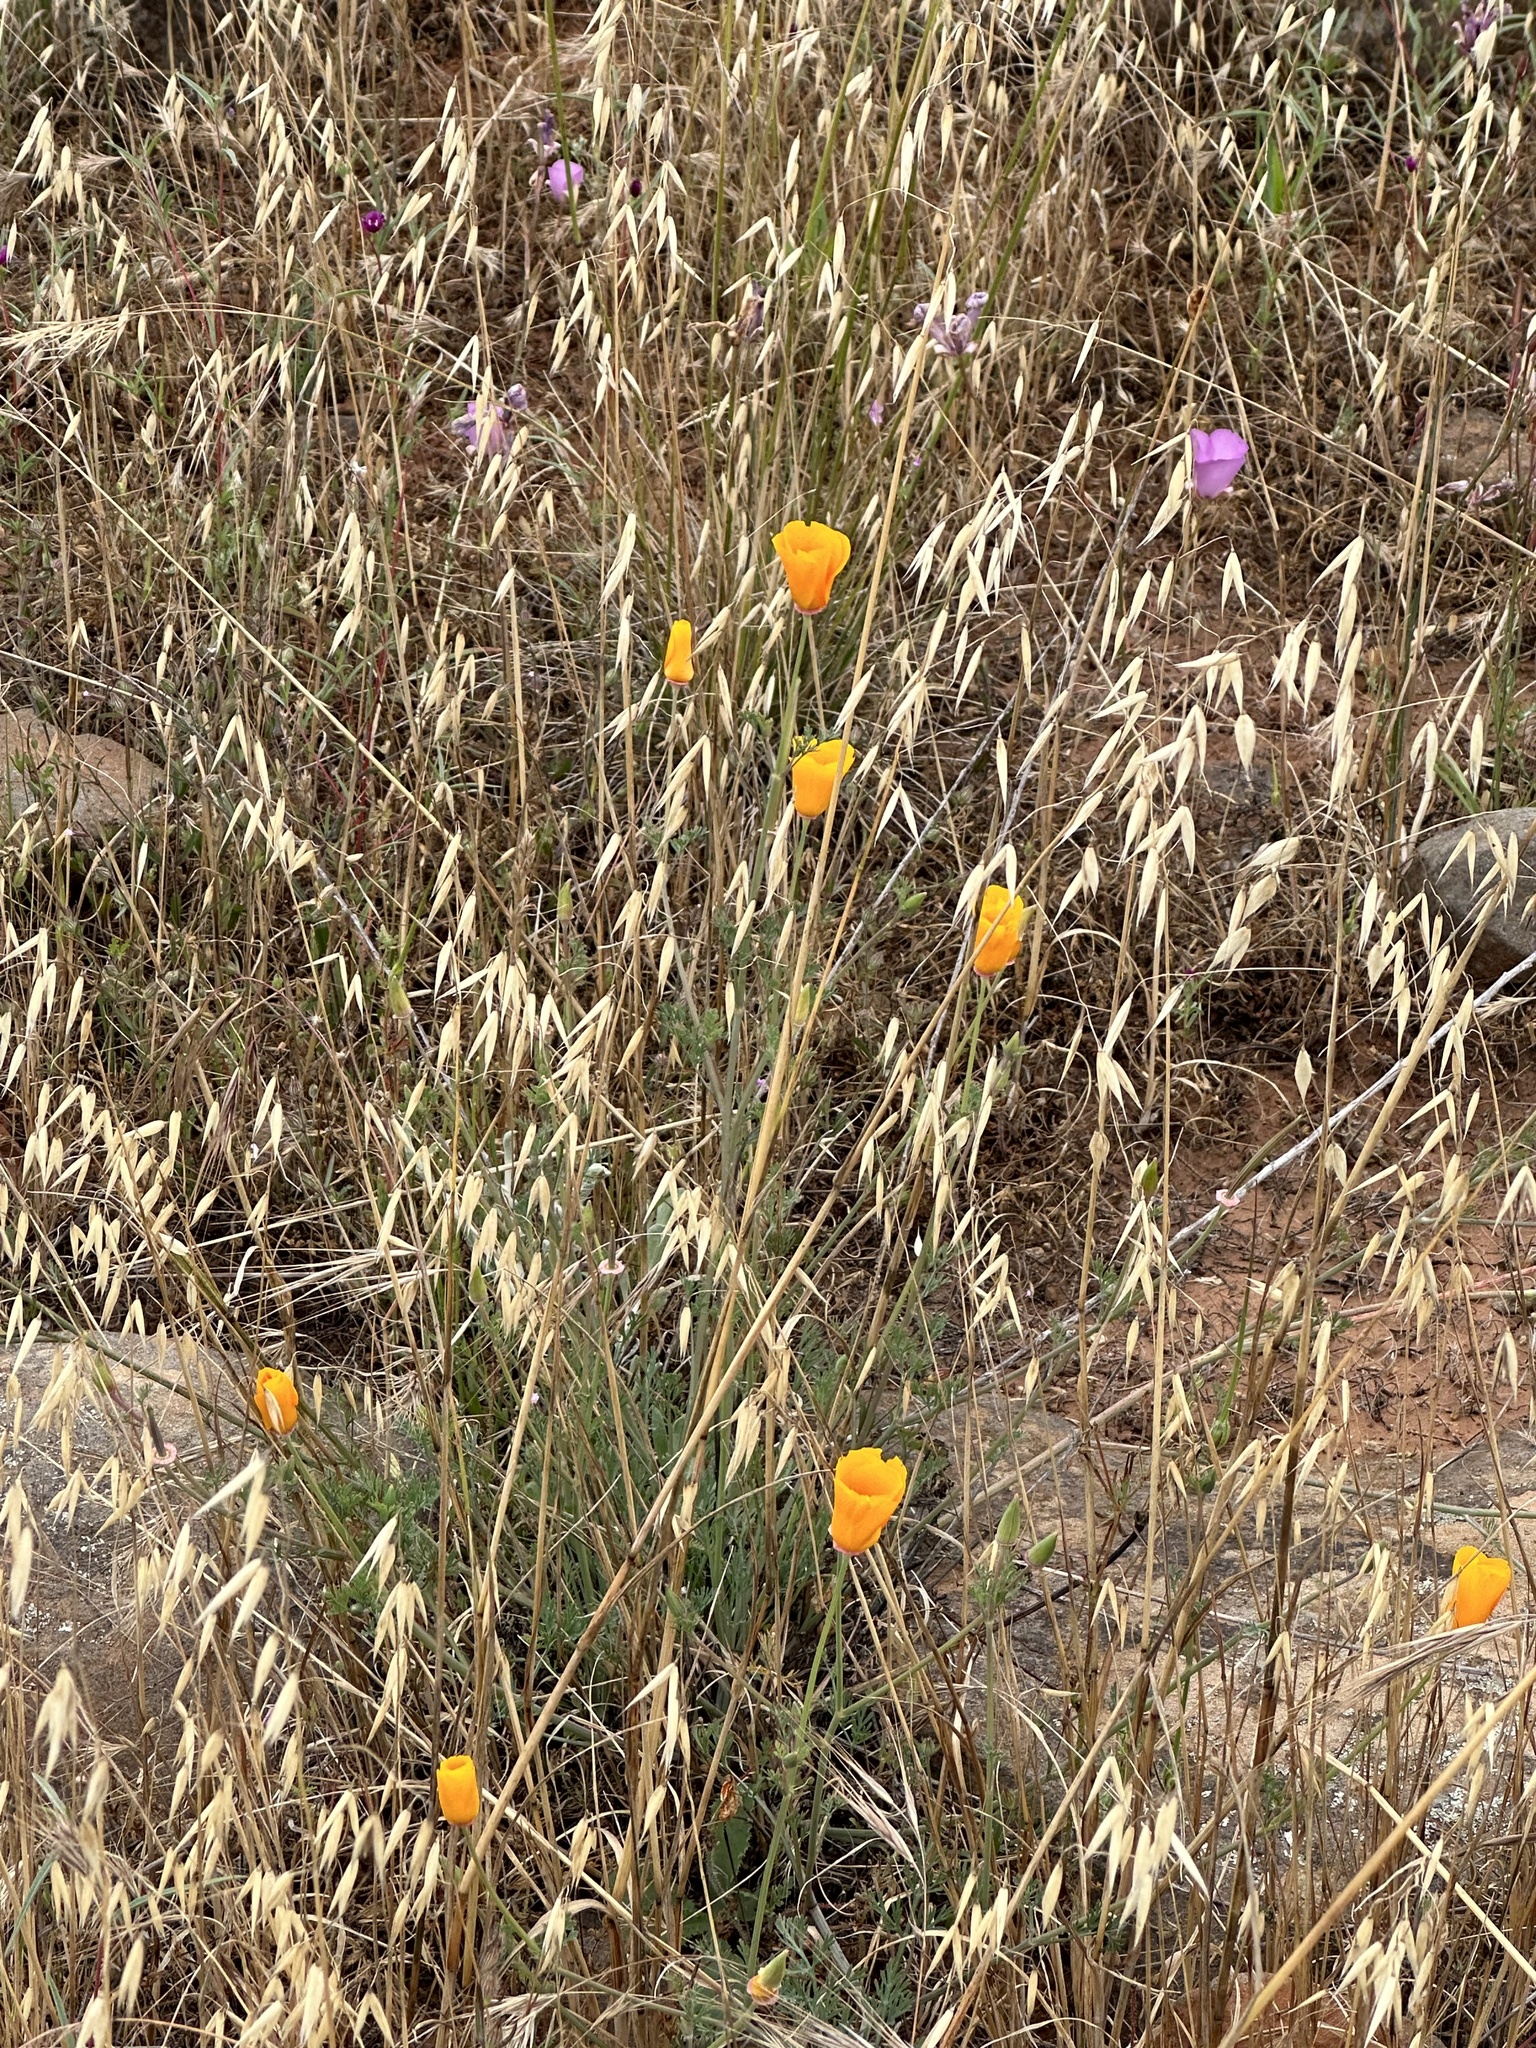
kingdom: Plantae
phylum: Tracheophyta
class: Magnoliopsida
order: Ranunculales
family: Papaveraceae
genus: Eschscholzia
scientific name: Eschscholzia californica
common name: California poppy
